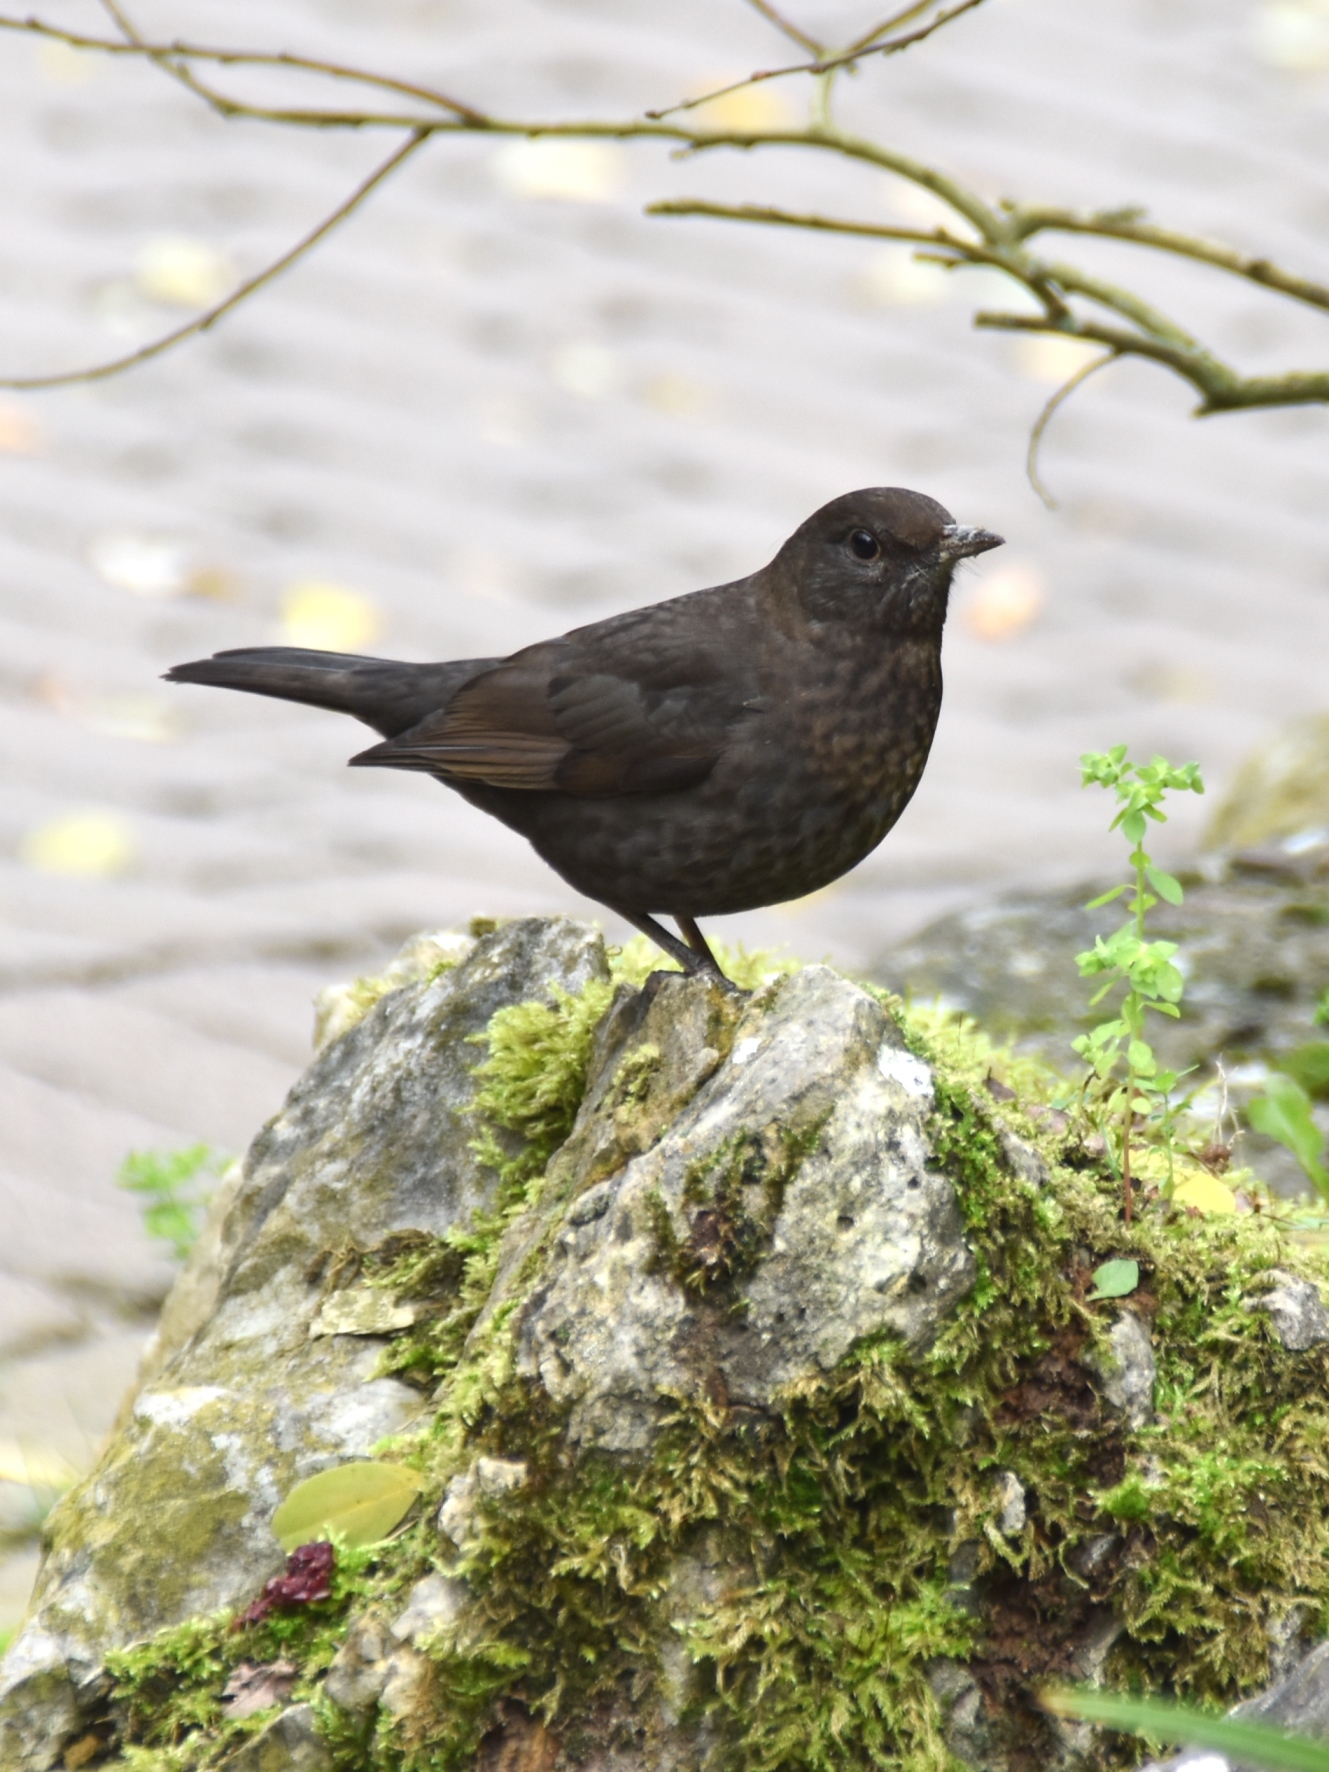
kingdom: Animalia
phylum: Chordata
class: Aves
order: Passeriformes
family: Turdidae
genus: Turdus
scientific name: Turdus merula
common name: Common blackbird
